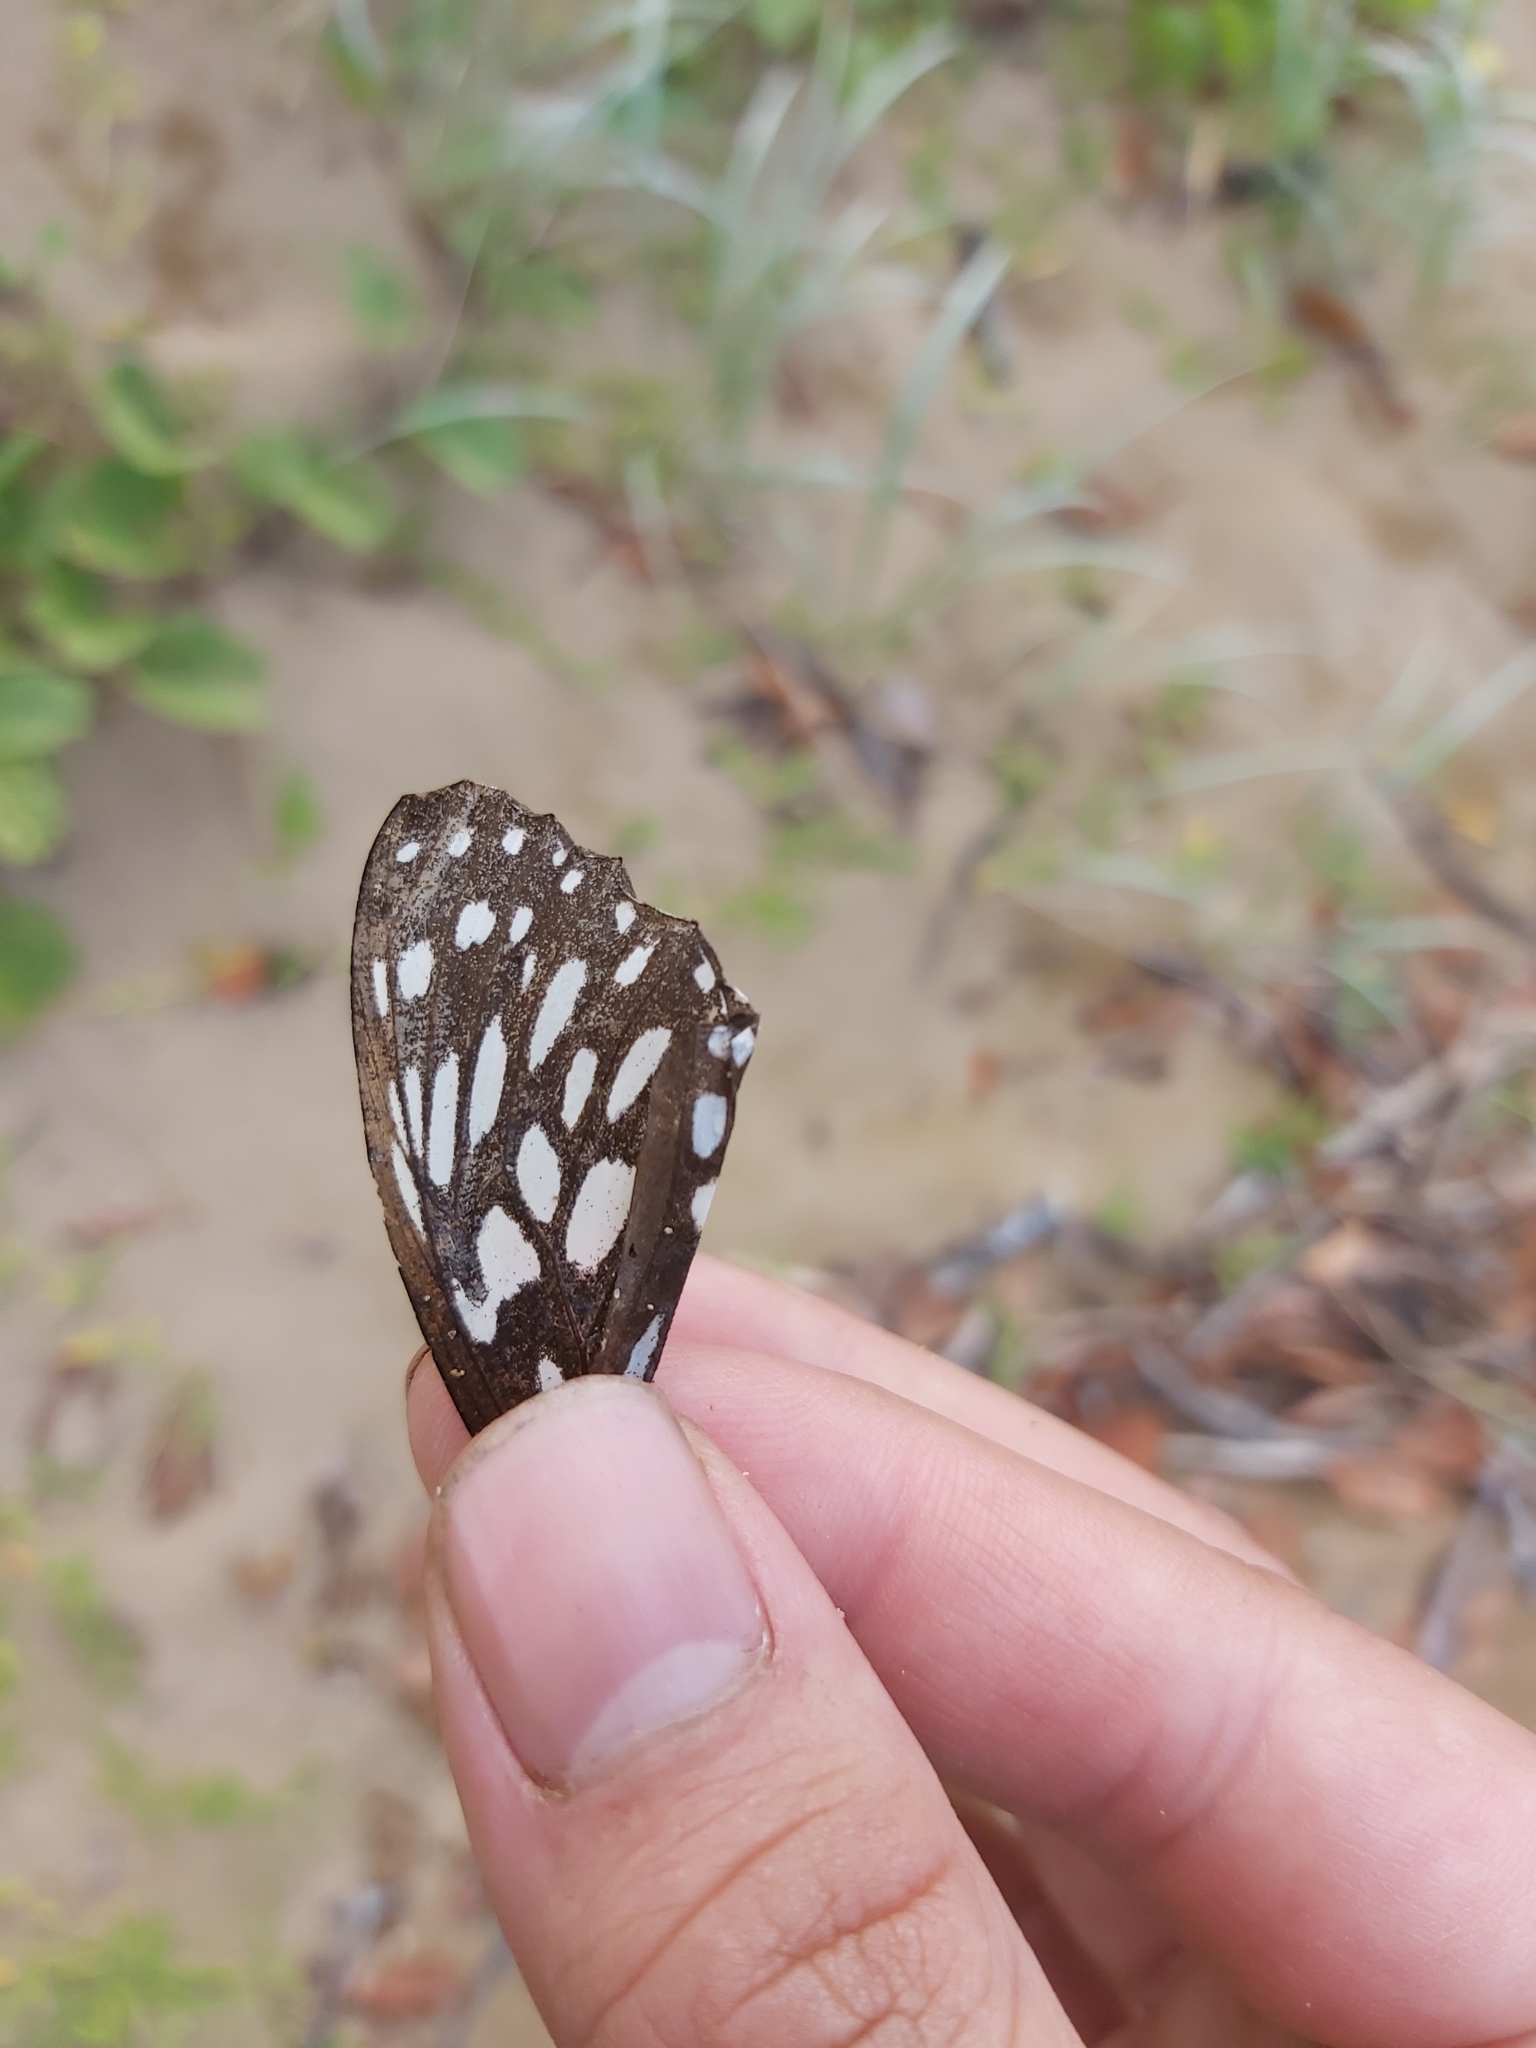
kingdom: Animalia
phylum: Arthropoda
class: Insecta
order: Lepidoptera
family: Nymphalidae
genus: Tirumala
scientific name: Tirumala hamata
